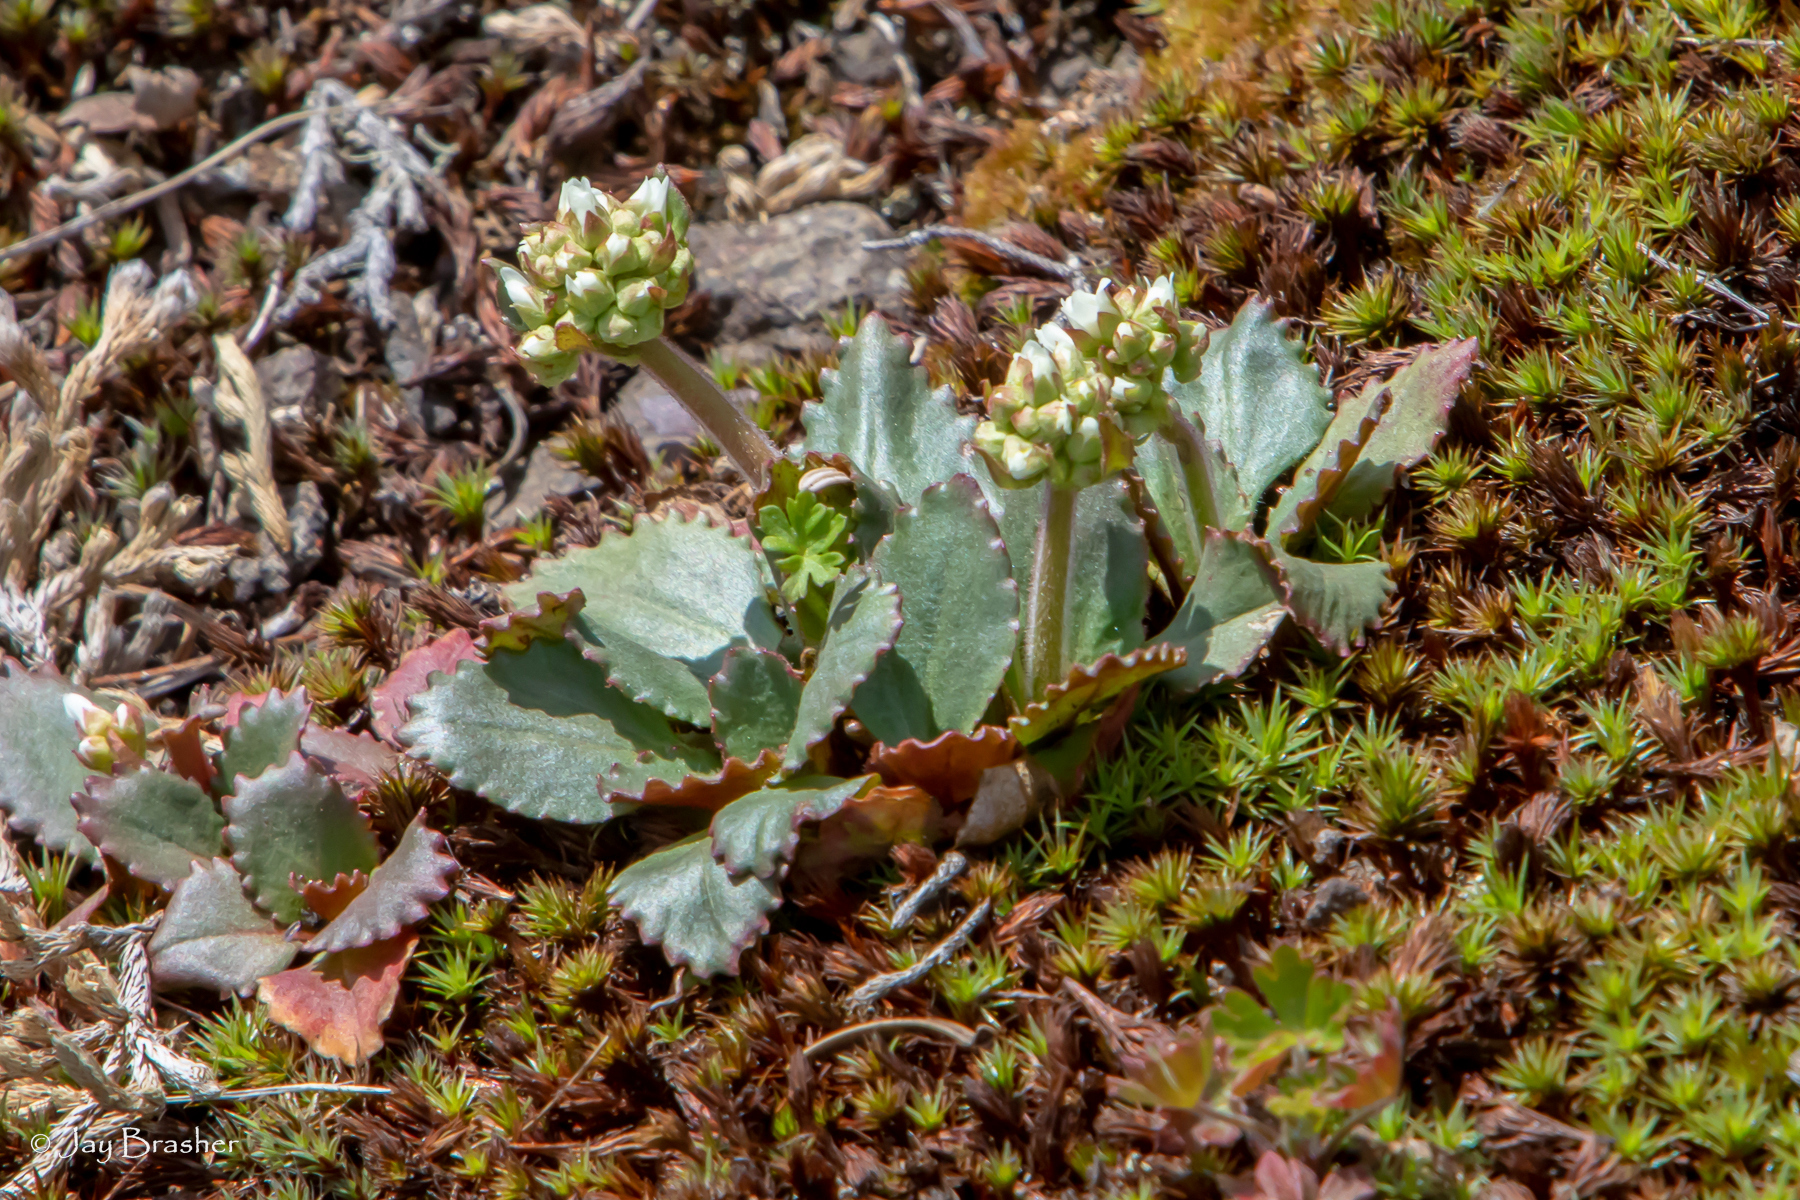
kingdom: Plantae
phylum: Tracheophyta
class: Magnoliopsida
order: Saxifragales
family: Saxifragaceae
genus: Micranthes
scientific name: Micranthes virginiensis
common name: Early saxifrage
